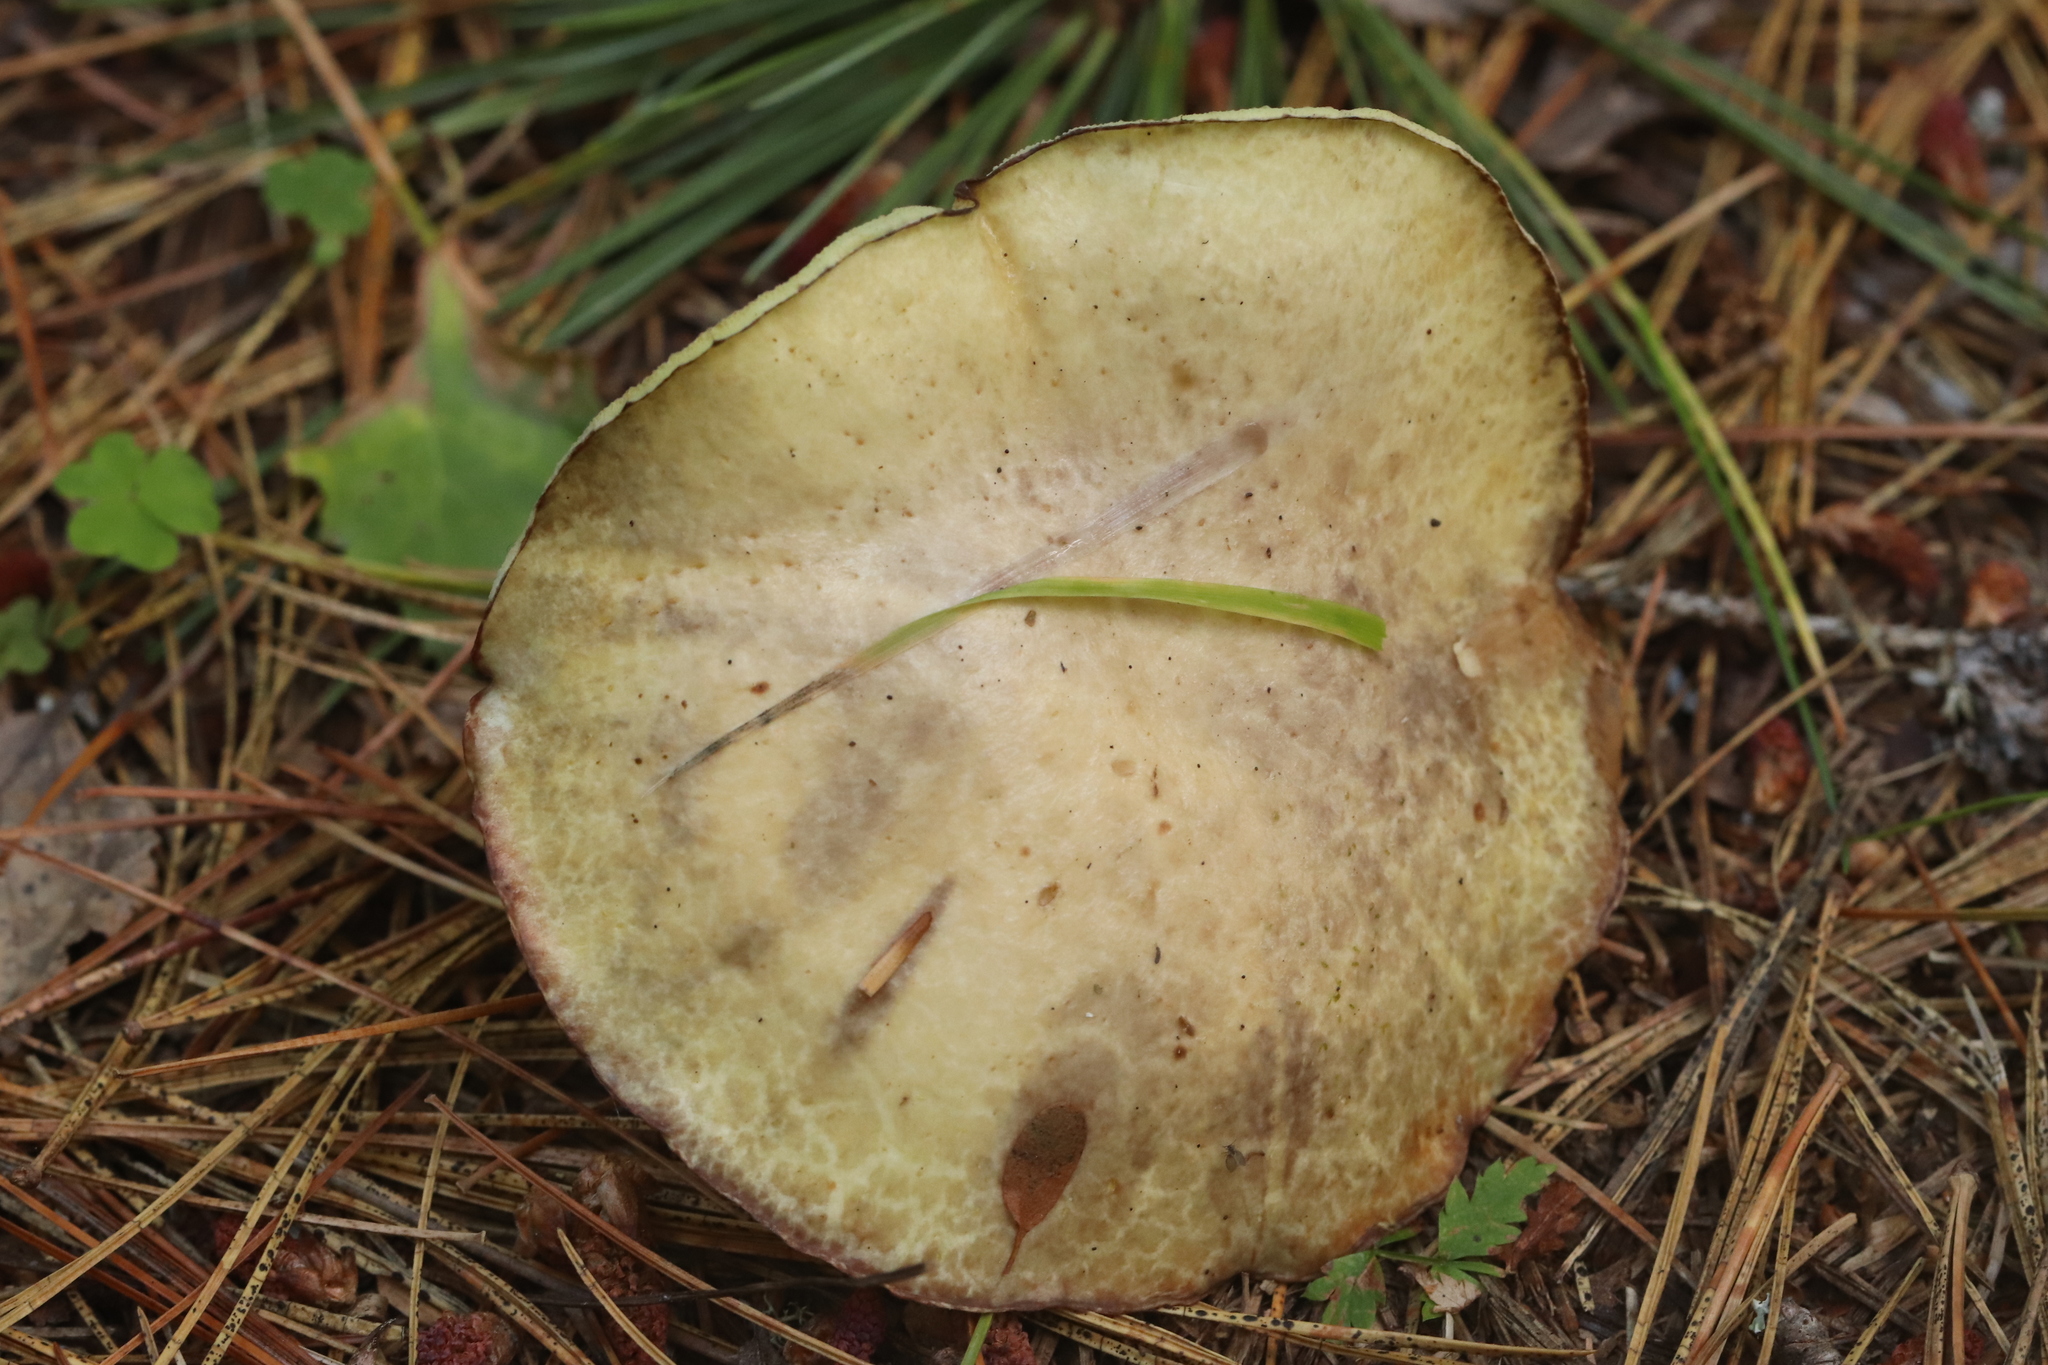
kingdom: Fungi
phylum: Basidiomycota
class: Agaricomycetes
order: Boletales
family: Suillaceae
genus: Suillus
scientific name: Suillus placidus
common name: Slippery white bolete
